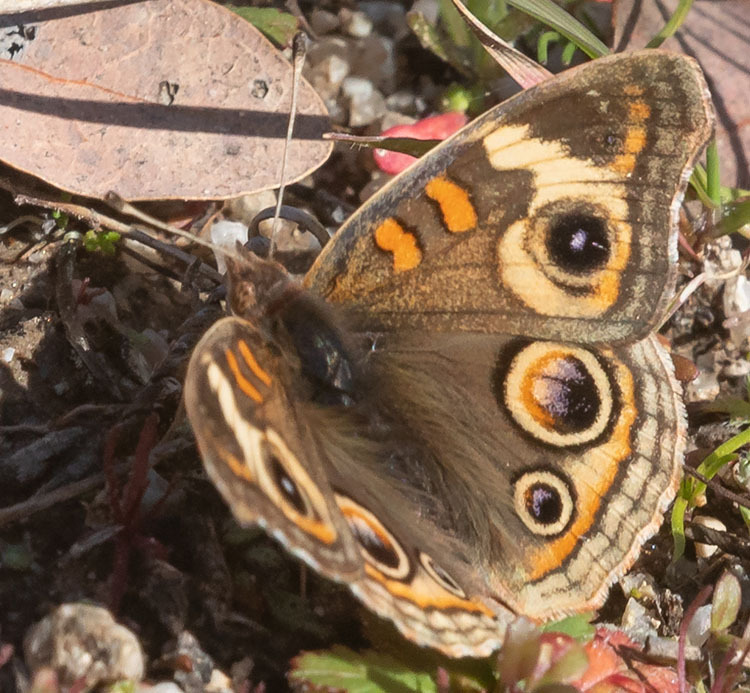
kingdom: Animalia
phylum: Arthropoda
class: Insecta
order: Lepidoptera
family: Nymphalidae
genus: Junonia
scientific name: Junonia grisea
